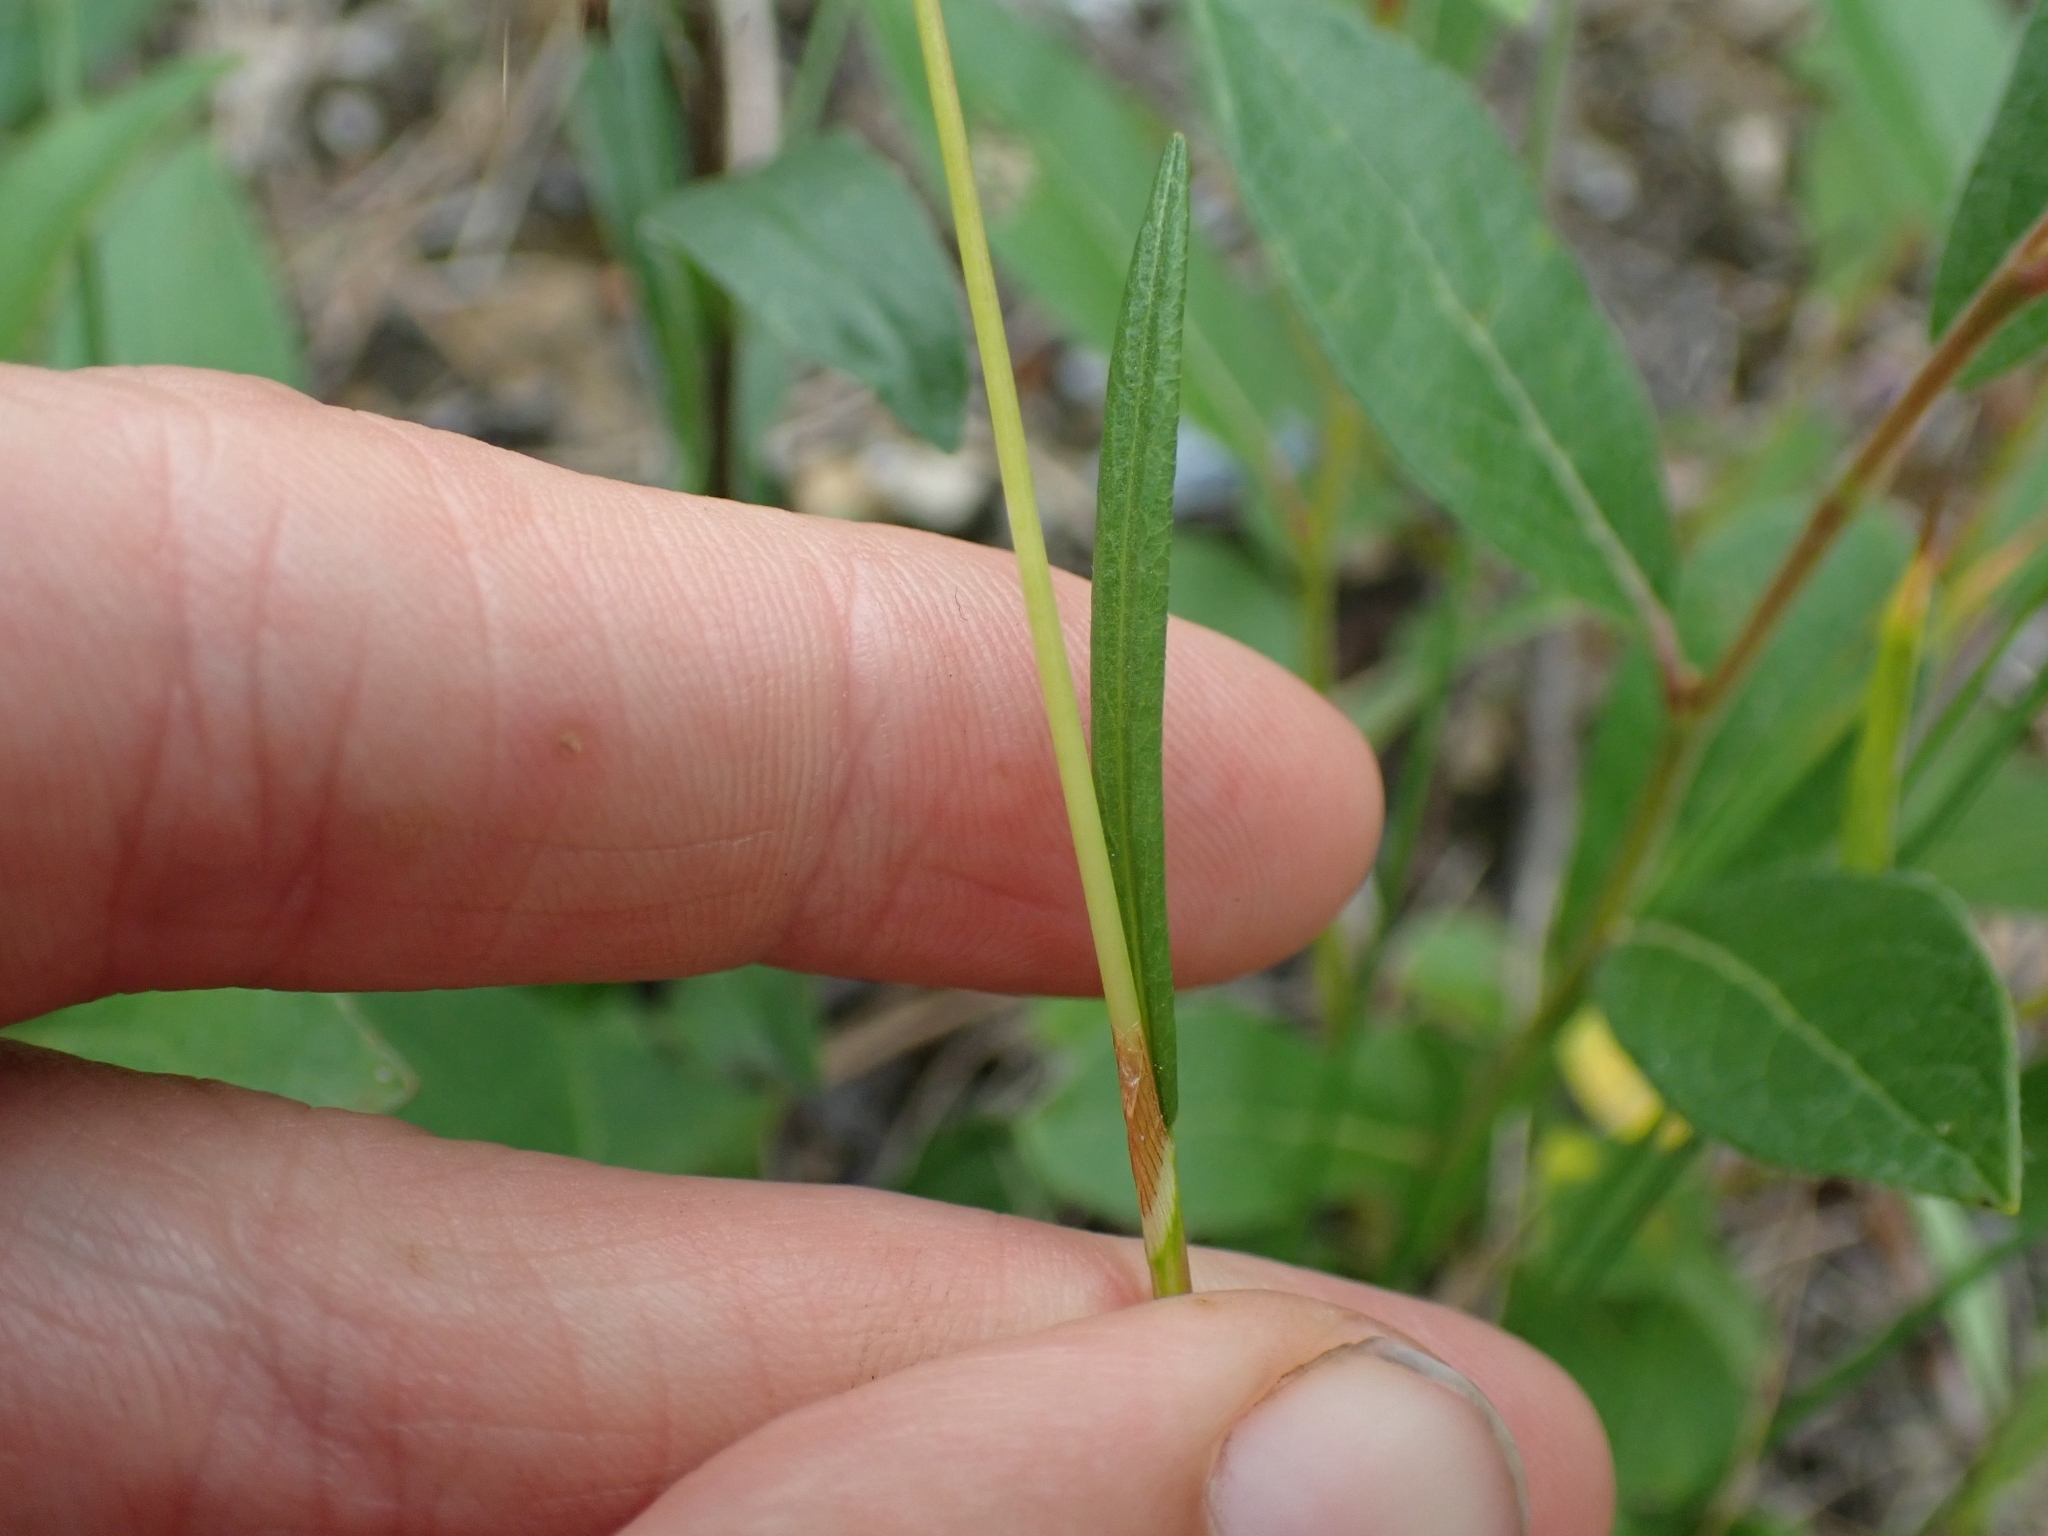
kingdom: Plantae
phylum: Tracheophyta
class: Magnoliopsida
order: Caryophyllales
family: Polygonaceae
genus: Bistorta
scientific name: Bistorta vivipara
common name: Alpine bistort
